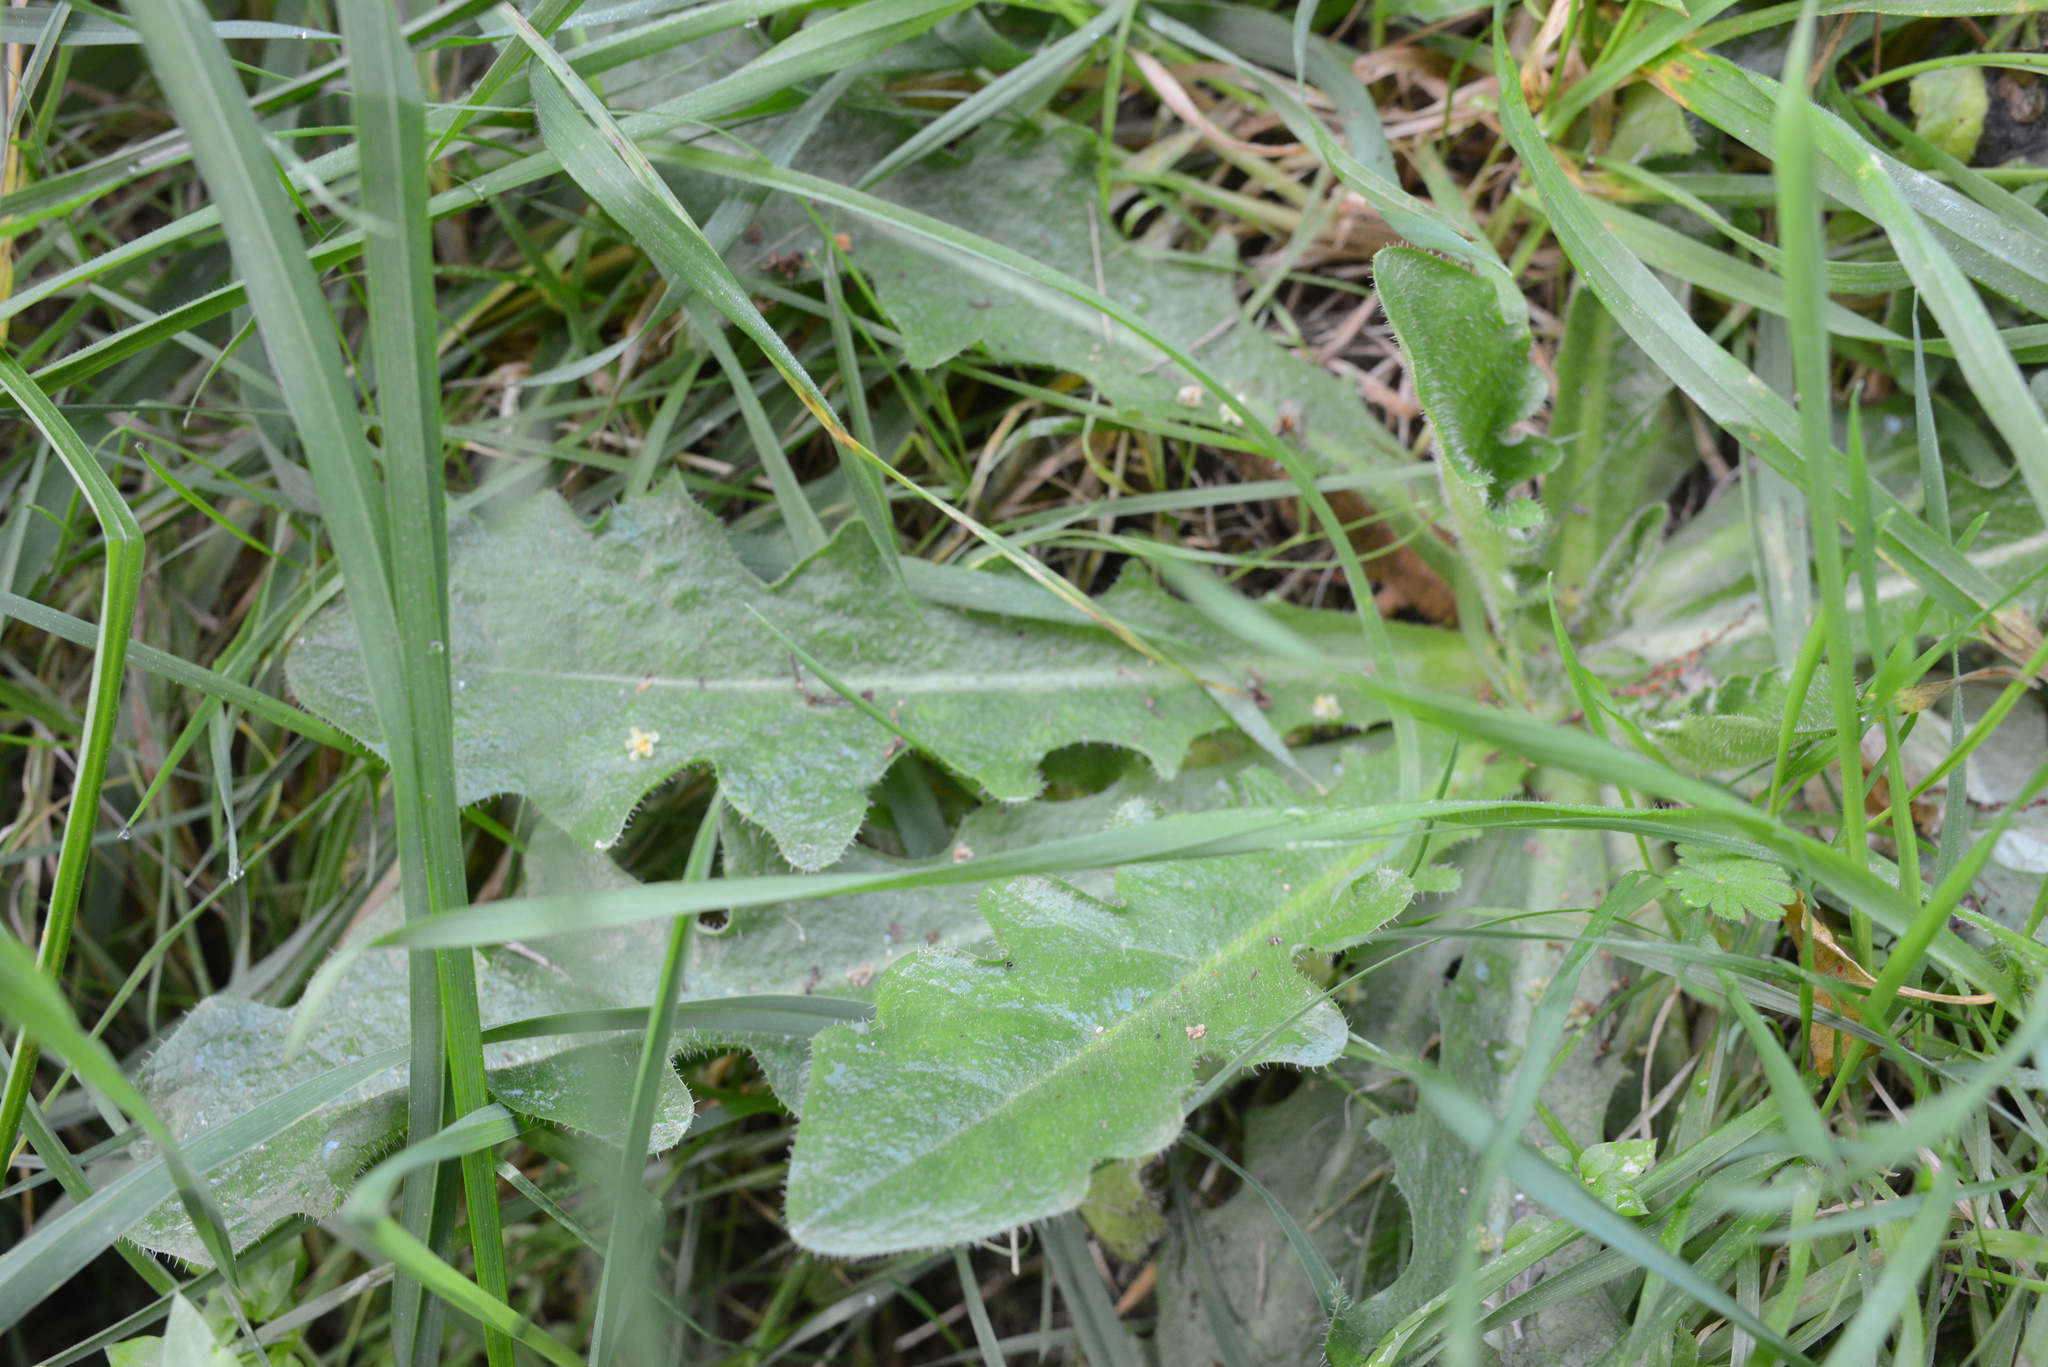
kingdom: Plantae
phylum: Tracheophyta
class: Magnoliopsida
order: Asterales
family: Asteraceae
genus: Hypochaeris
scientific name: Hypochaeris radicata
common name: Flatweed
